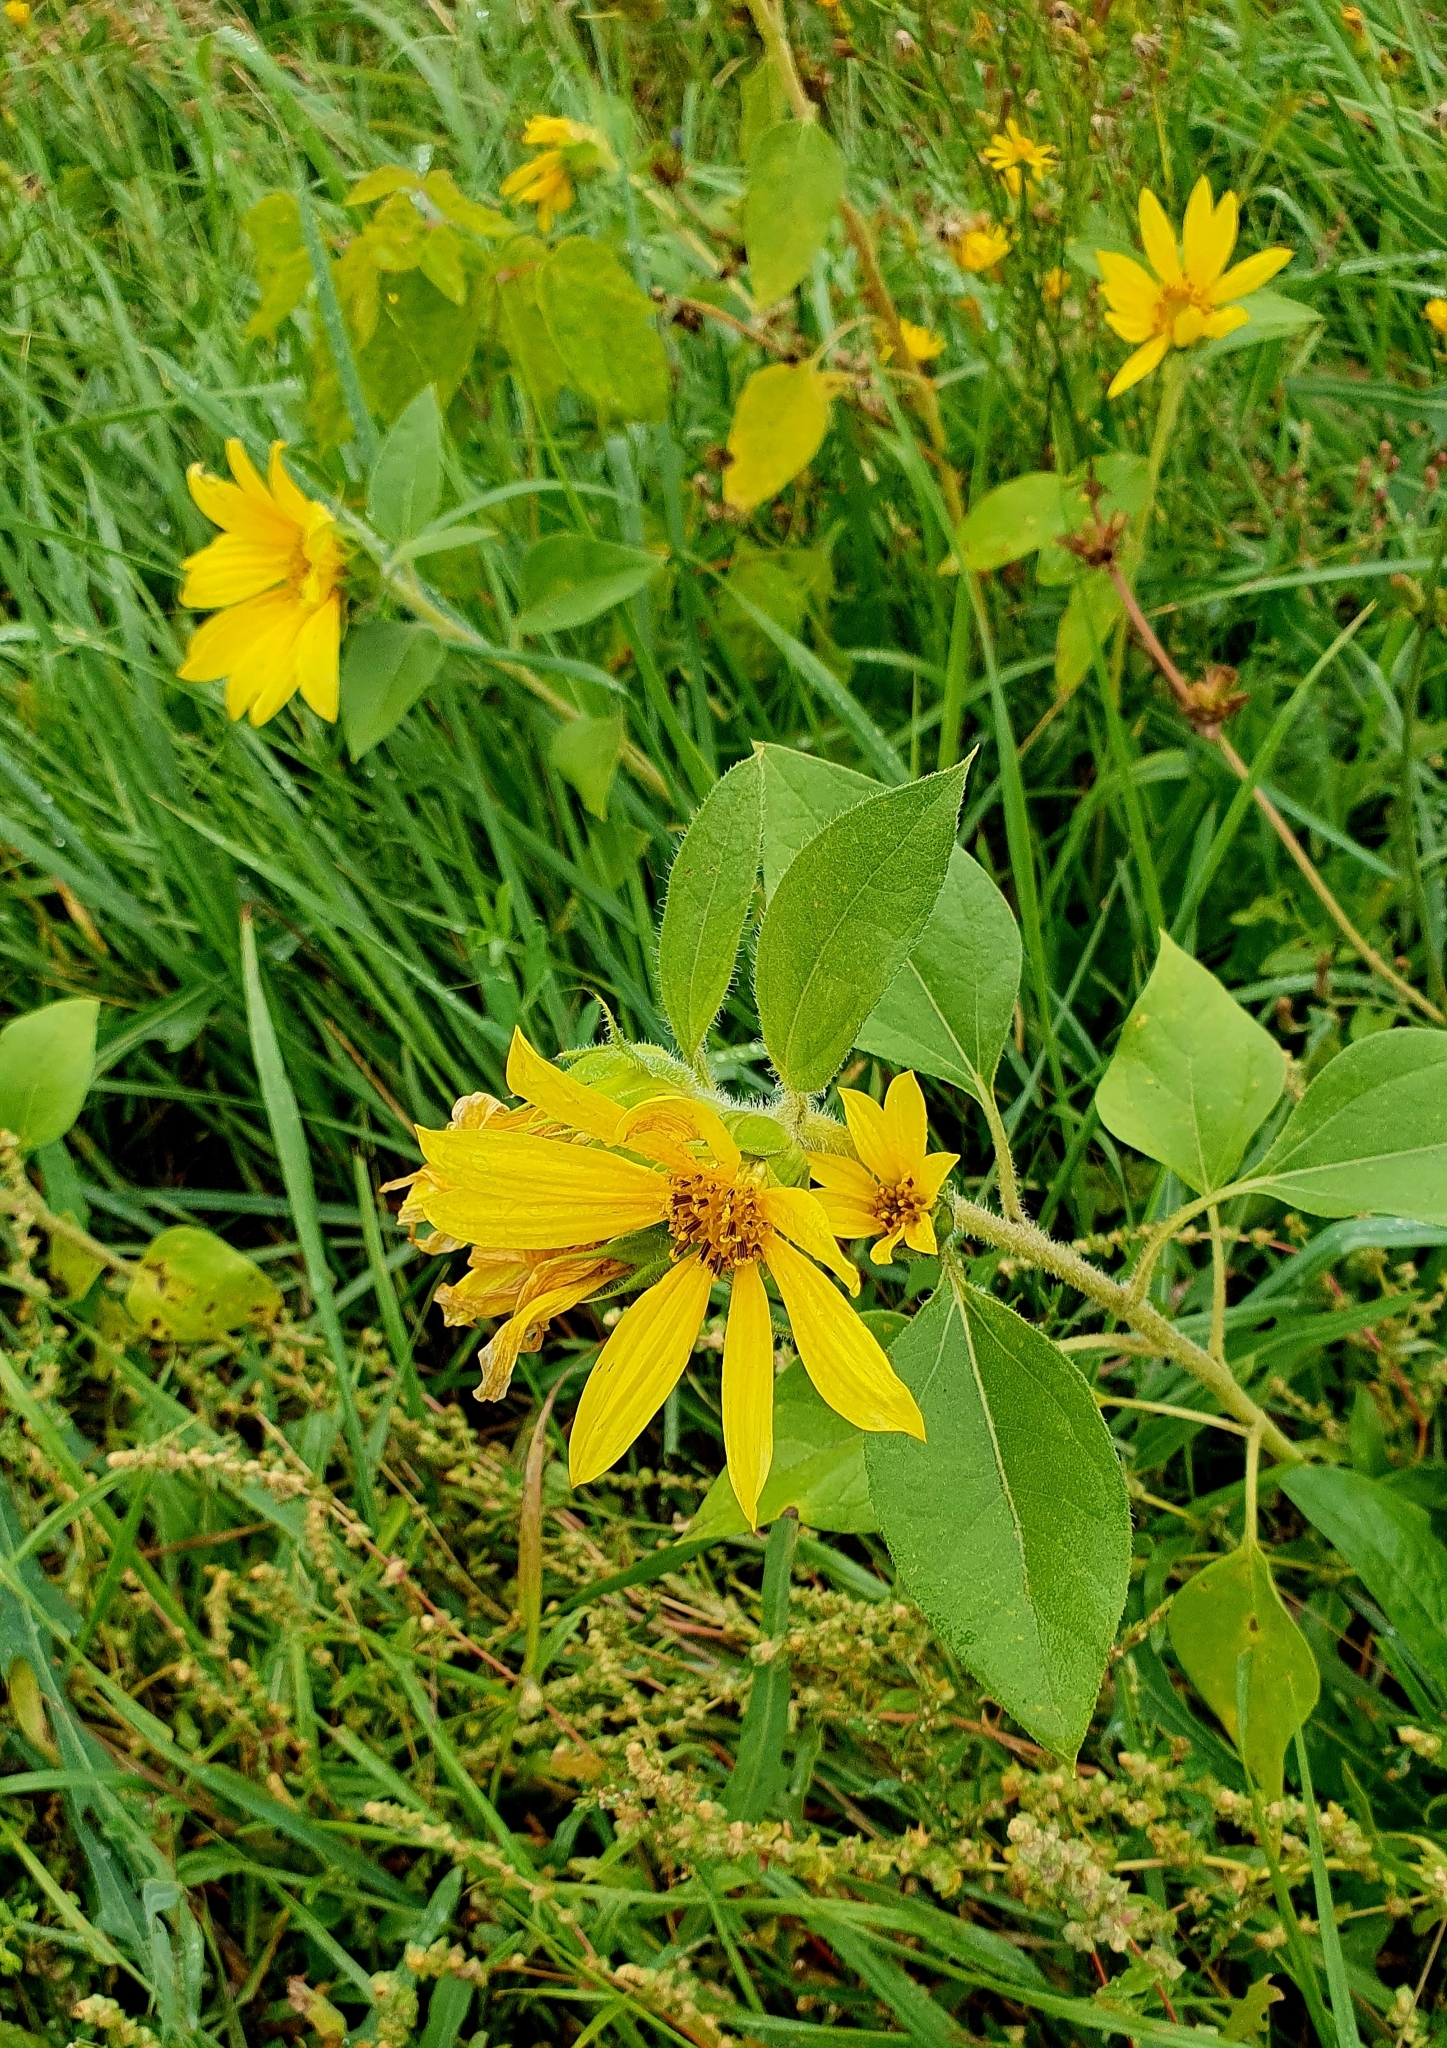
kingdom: Plantae
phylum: Tracheophyta
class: Magnoliopsida
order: Asterales
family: Asteraceae
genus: Helianthus
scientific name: Helianthus annuus
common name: Sunflower
